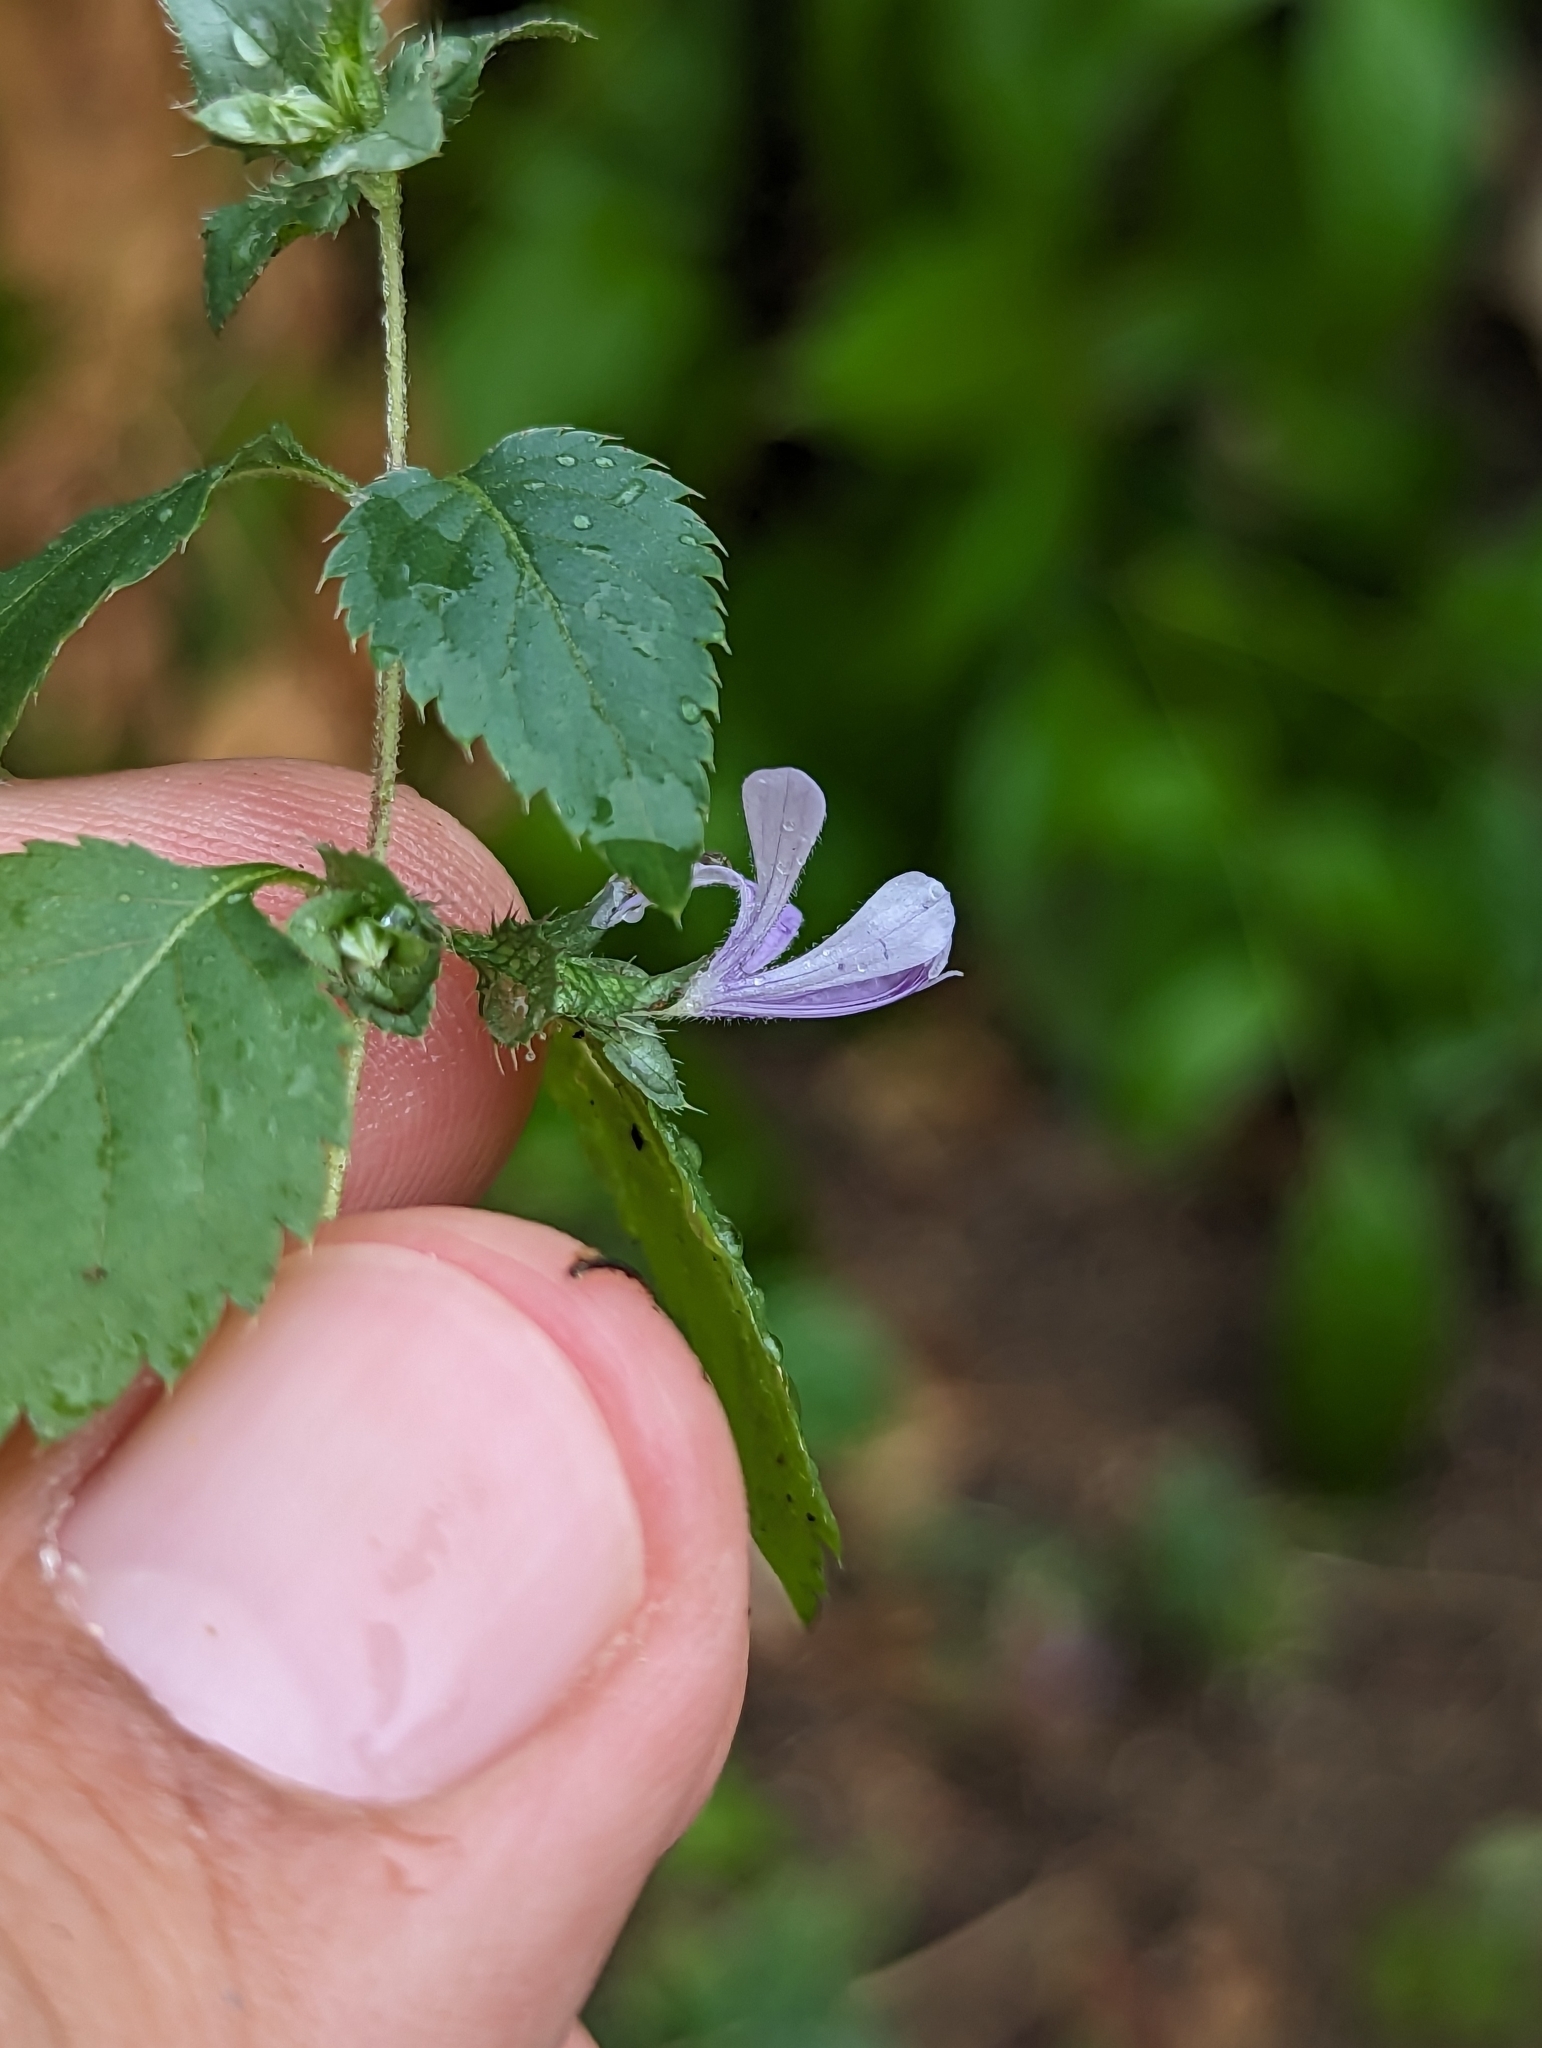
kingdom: Plantae
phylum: Tracheophyta
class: Magnoliopsida
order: Ericales
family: Polemoniaceae
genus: Loeselia
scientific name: Loeselia ciliata
